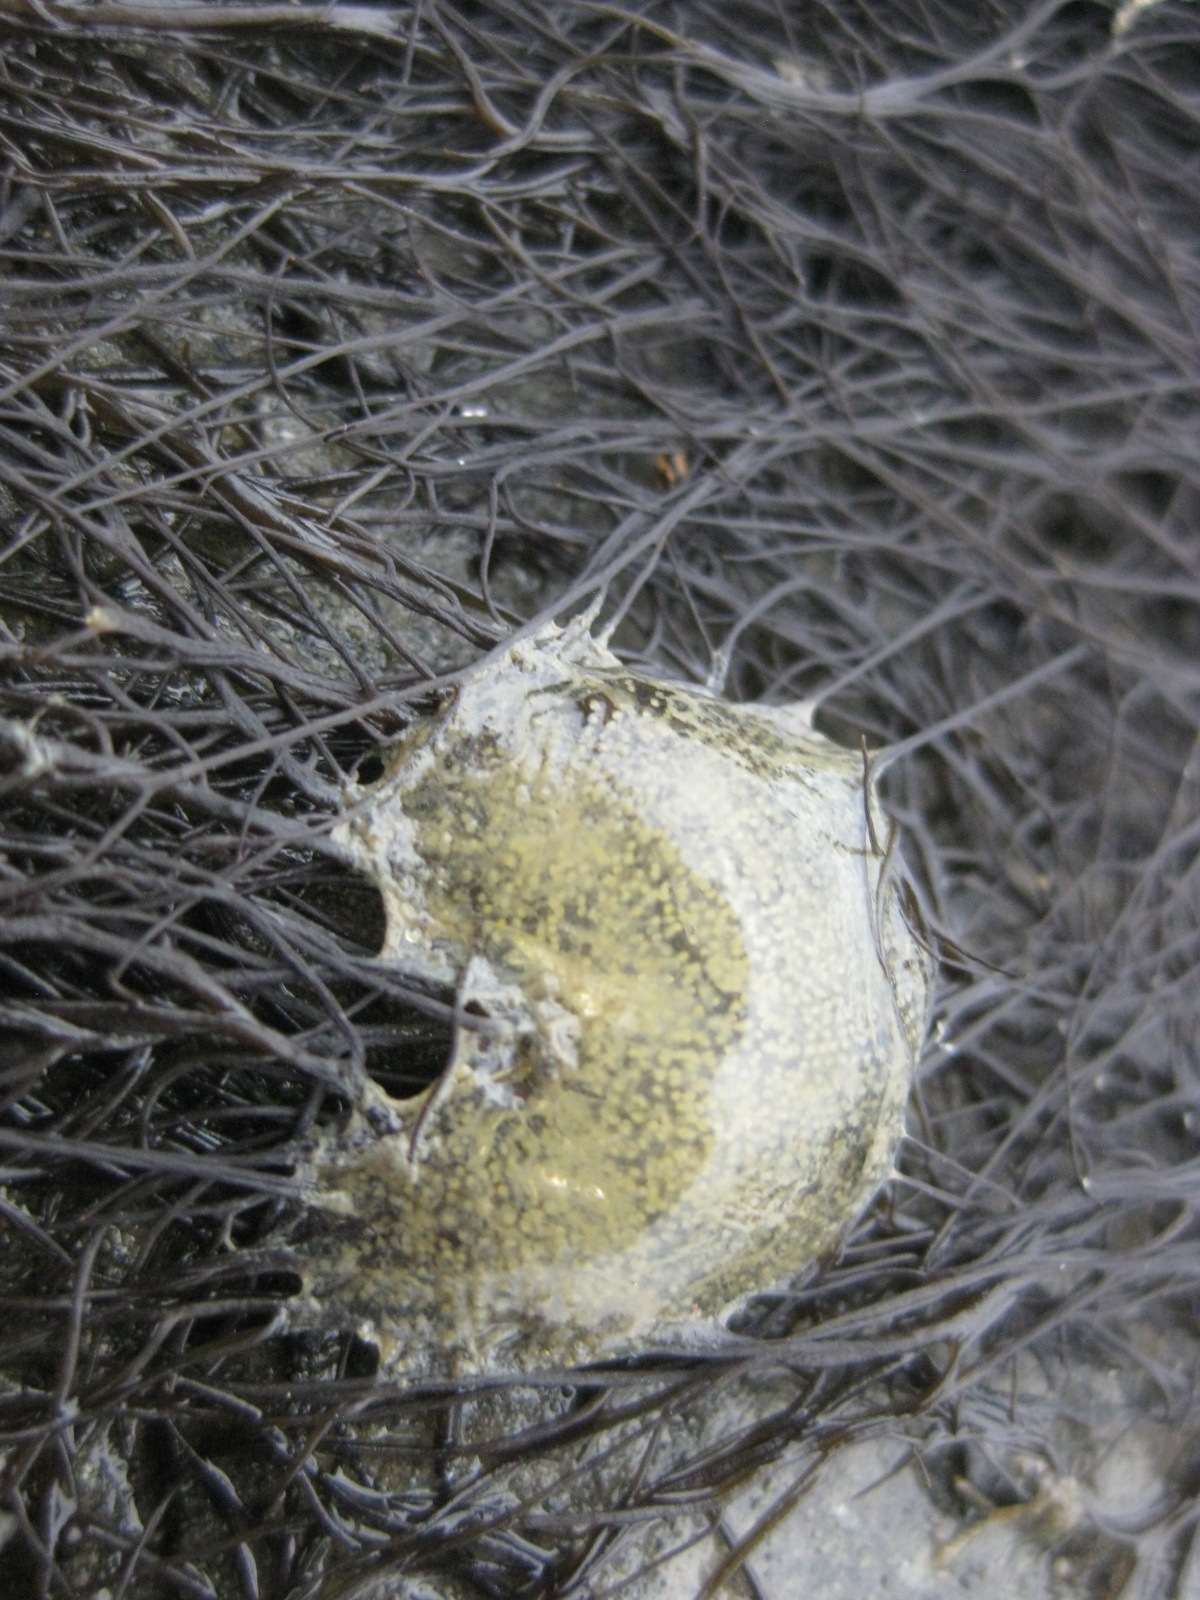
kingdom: Animalia
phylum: Mollusca
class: Gastropoda
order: Cephalaspidea
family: Haminoeidae
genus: Papawera
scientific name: Papawera zelandiae
